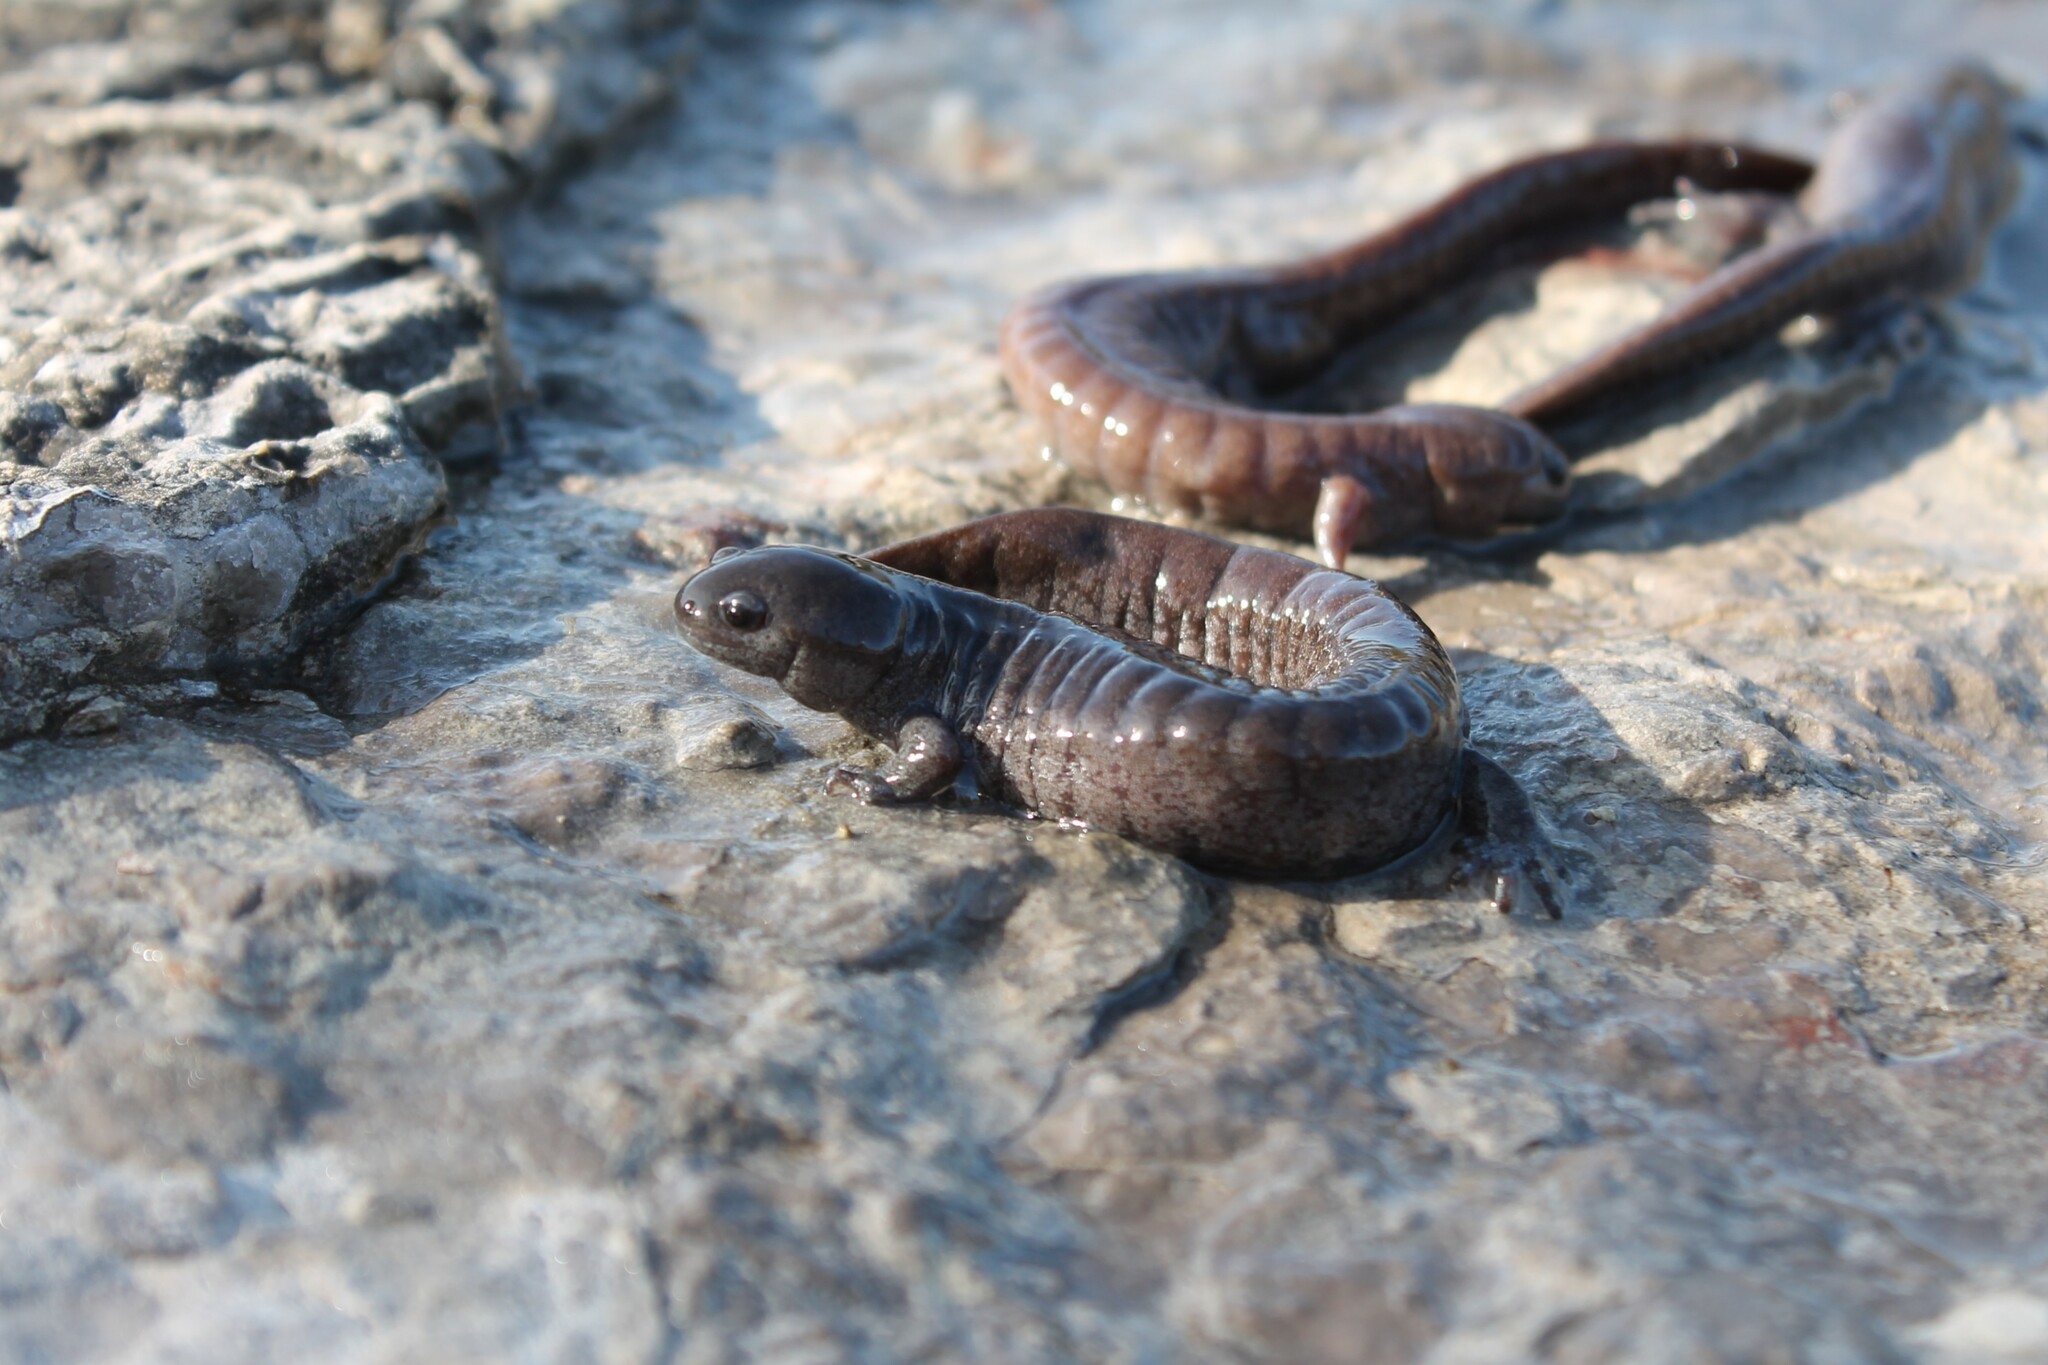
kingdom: Animalia
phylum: Chordata
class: Amphibia
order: Caudata
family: Ambystomatidae
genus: Ambystoma
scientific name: Ambystoma barbouri
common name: Streamside salamander
